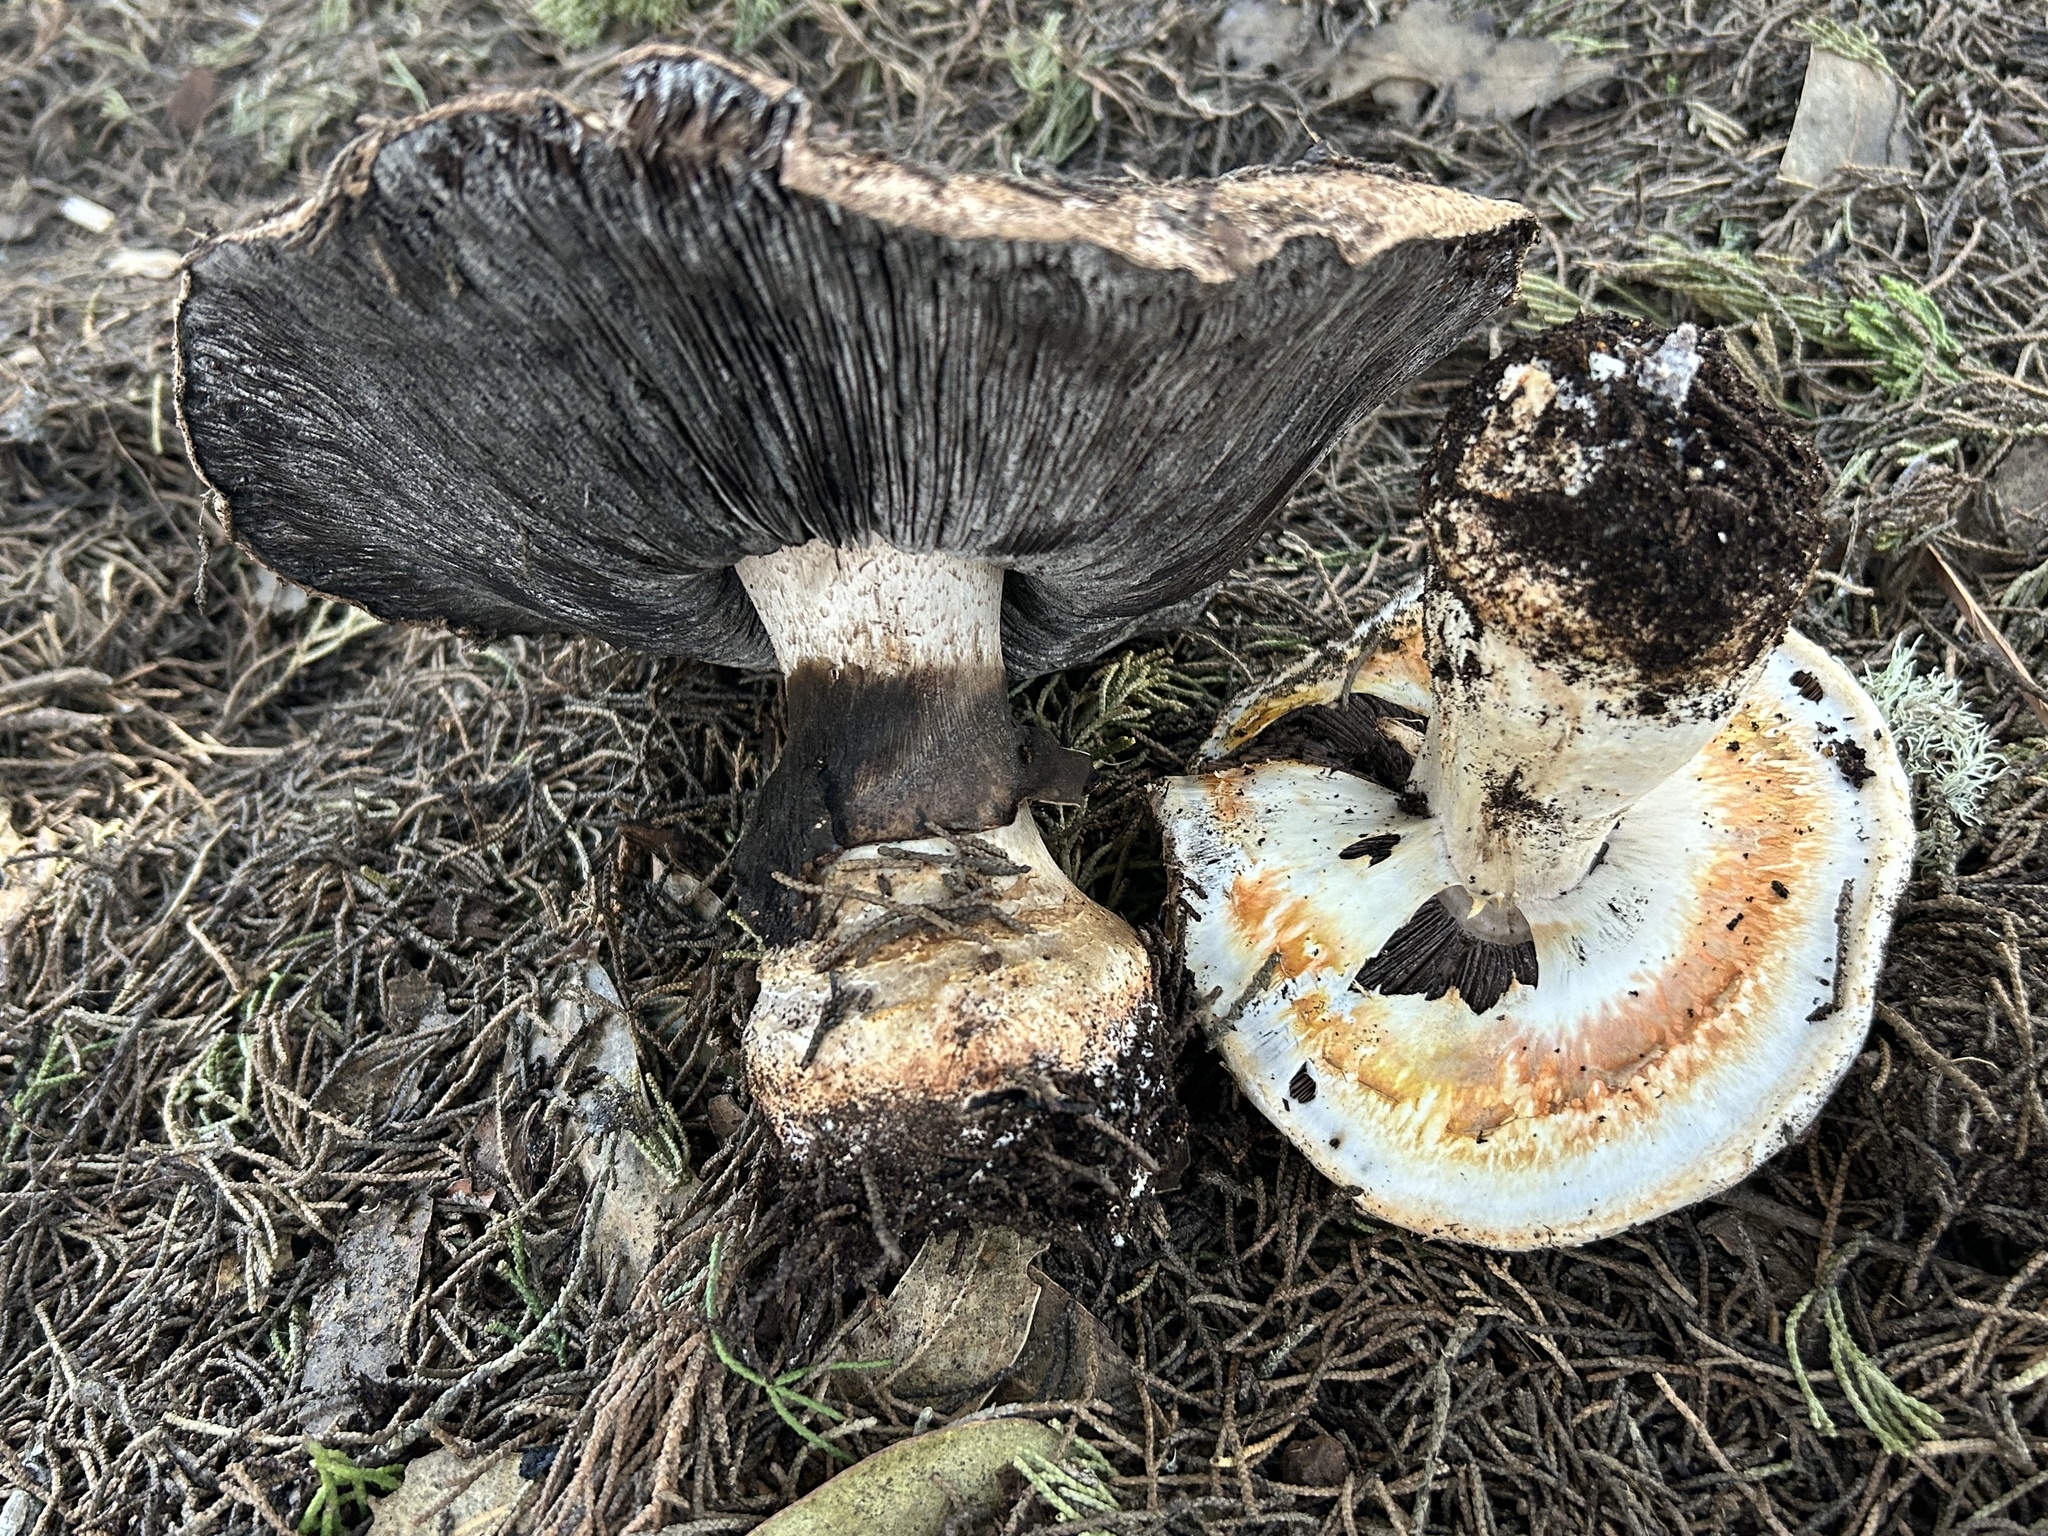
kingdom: Fungi
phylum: Basidiomycota
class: Agaricomycetes
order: Agaricales
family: Agaricaceae
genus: Agaricus
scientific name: Agaricus lilaceps
